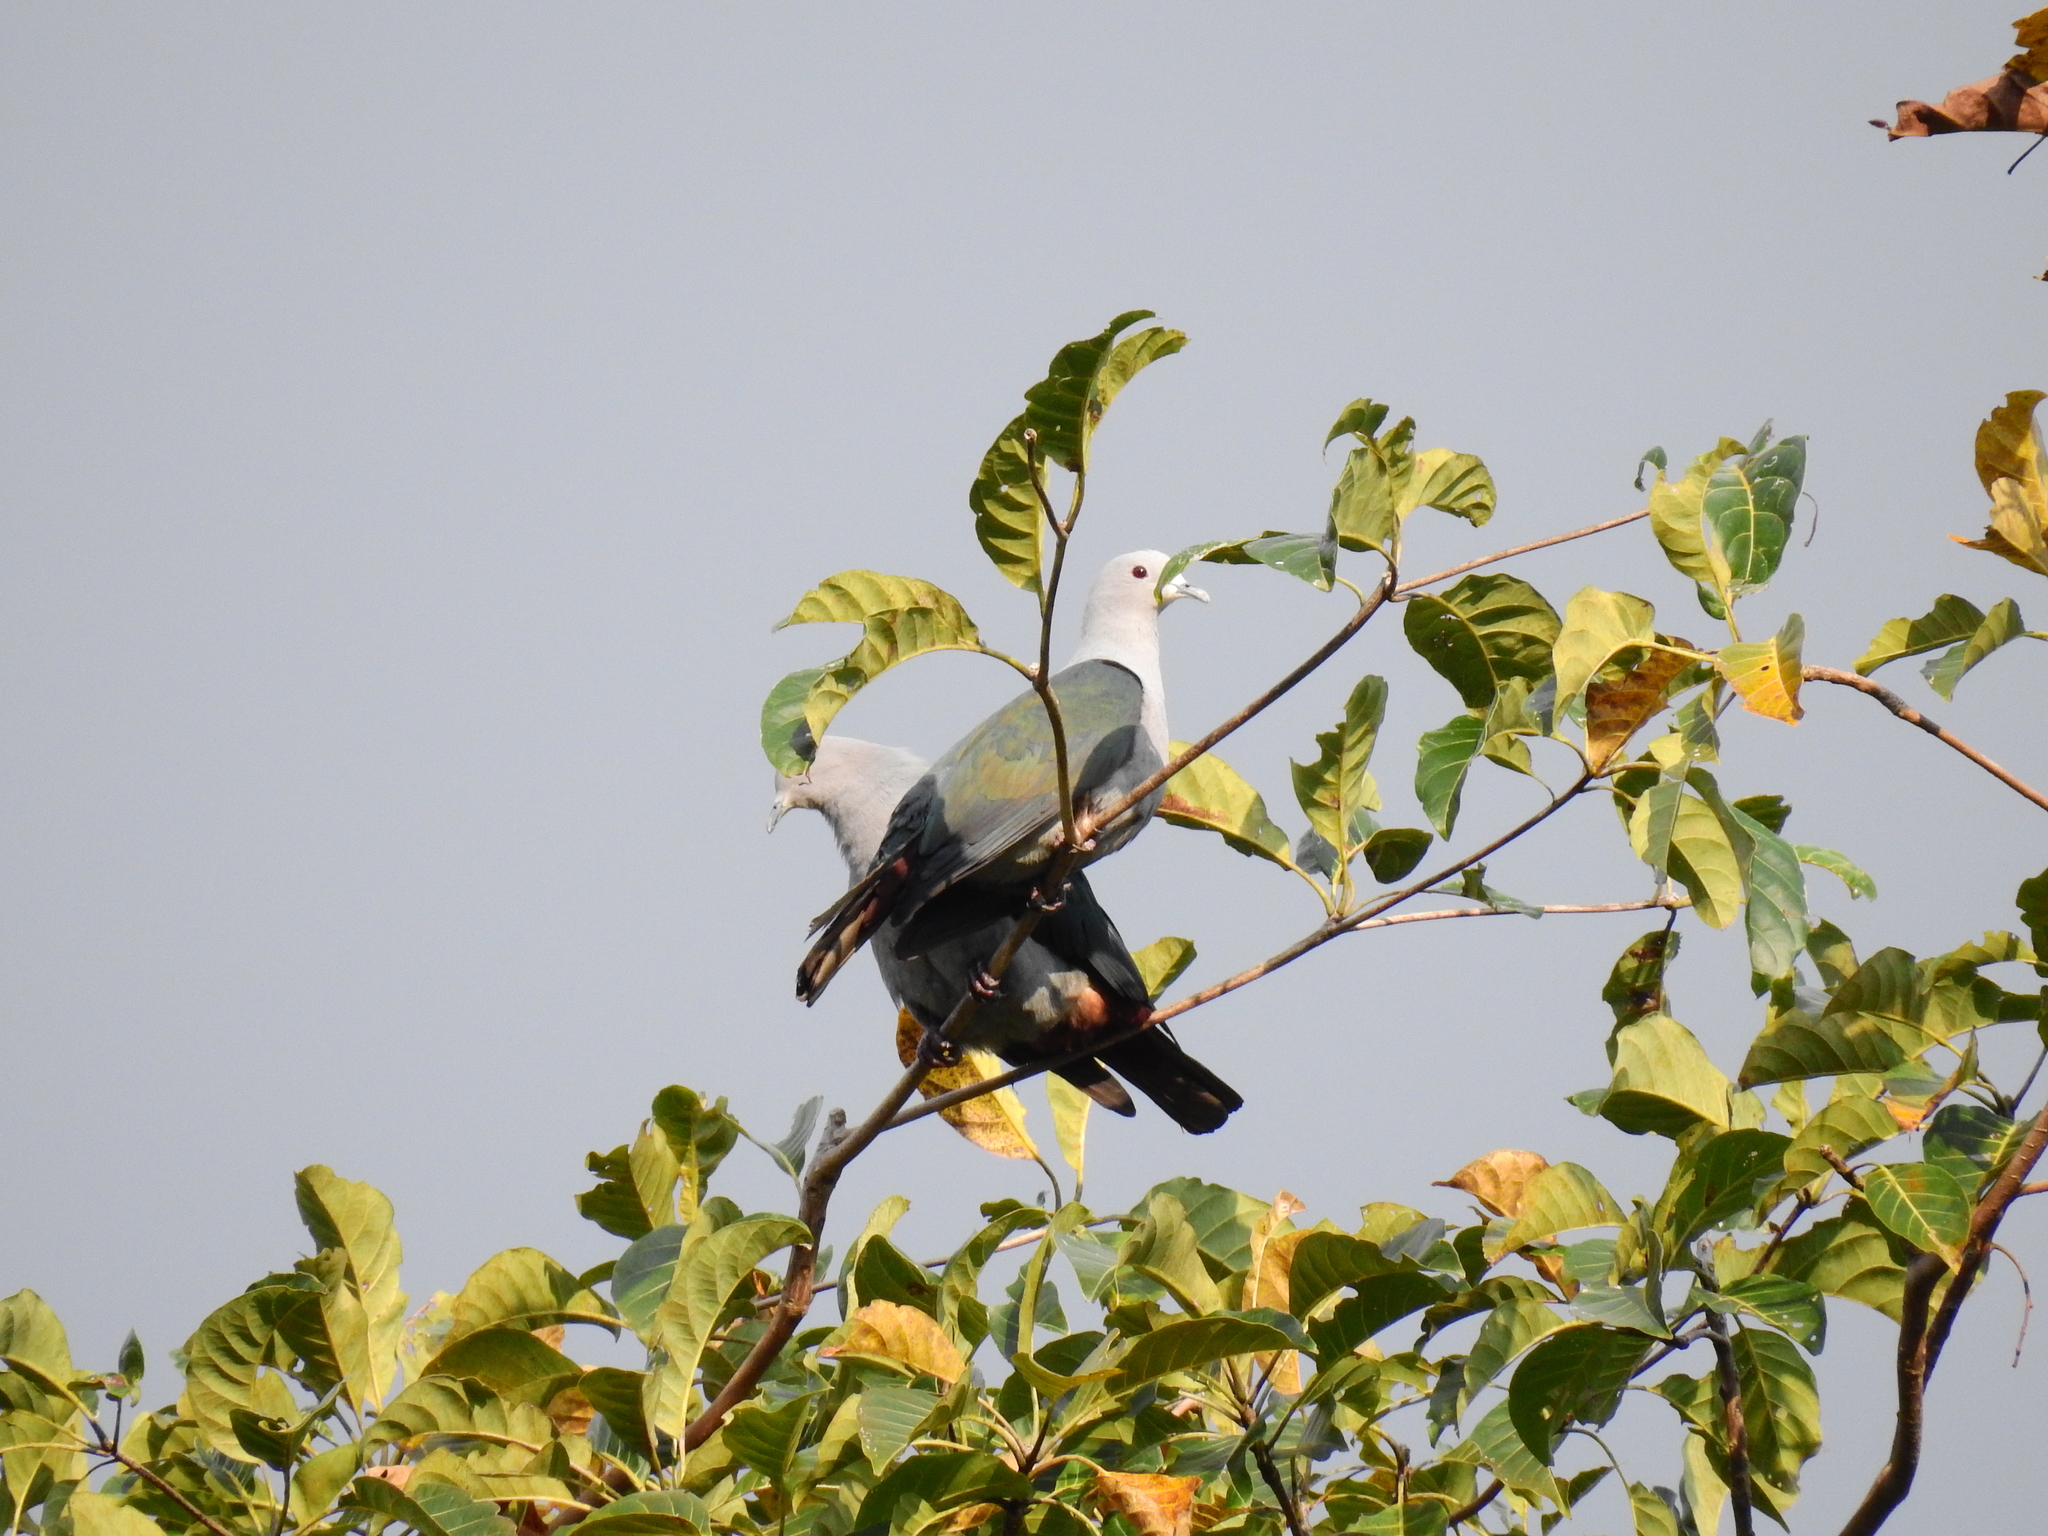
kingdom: Animalia
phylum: Chordata
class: Aves
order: Columbiformes
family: Columbidae
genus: Ducula
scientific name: Ducula aenea
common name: Green imperial pigeon
